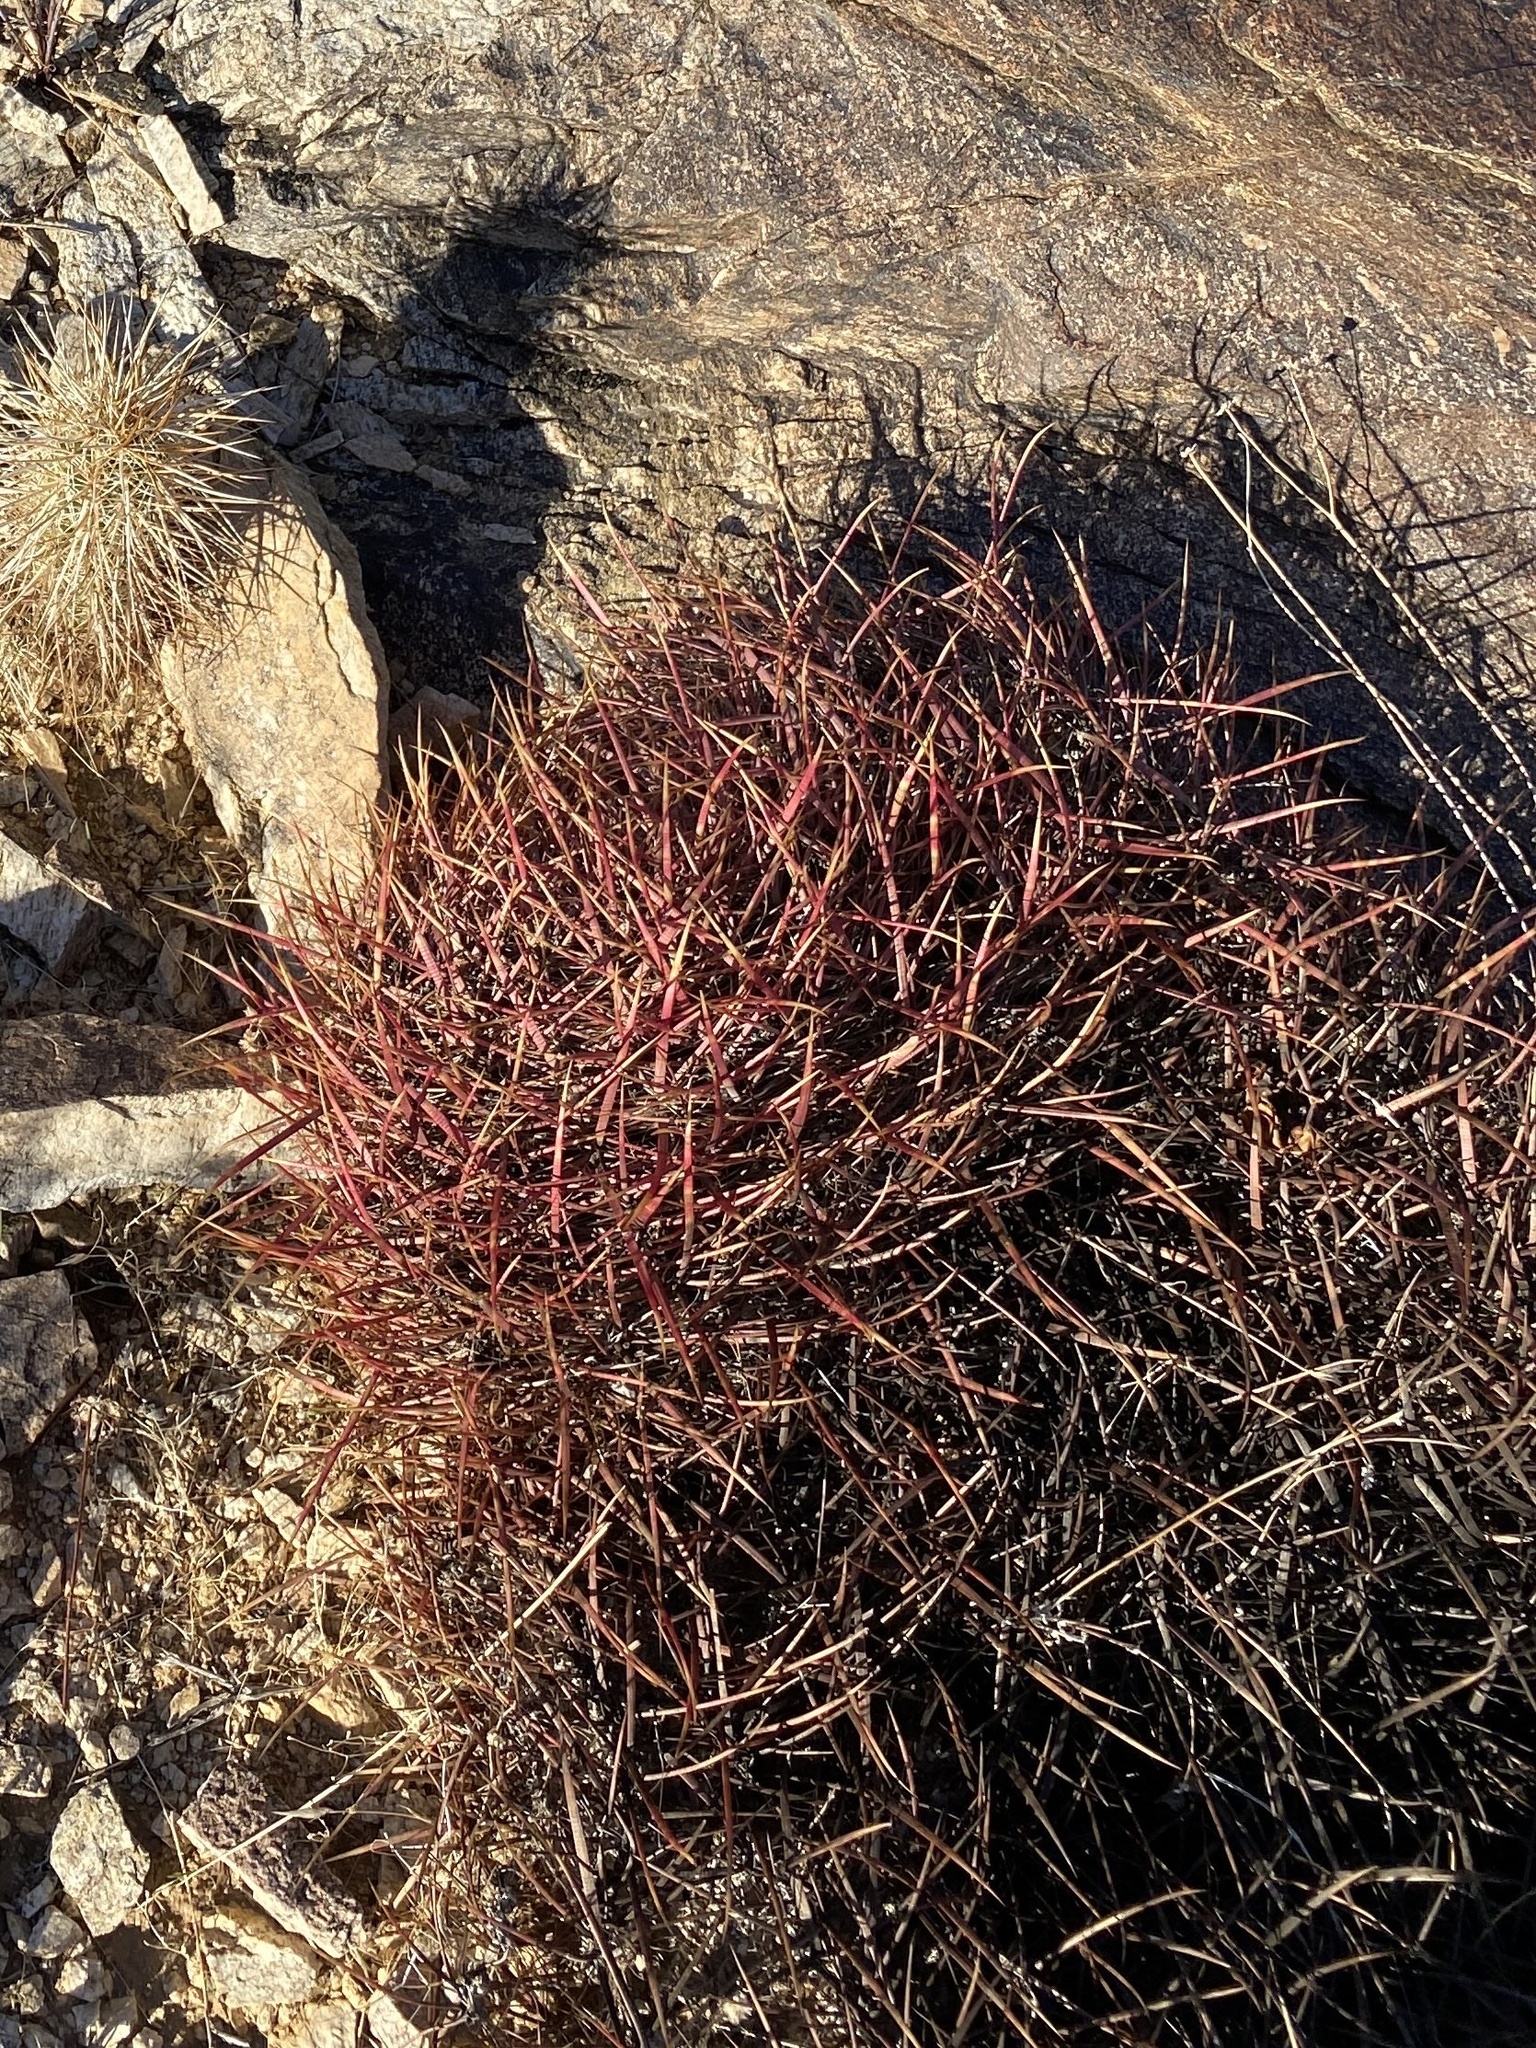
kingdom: Plantae
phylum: Tracheophyta
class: Magnoliopsida
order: Caryophyllales
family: Cactaceae
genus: Ferocactus
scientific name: Ferocactus cylindraceus
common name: California barrel cactus
